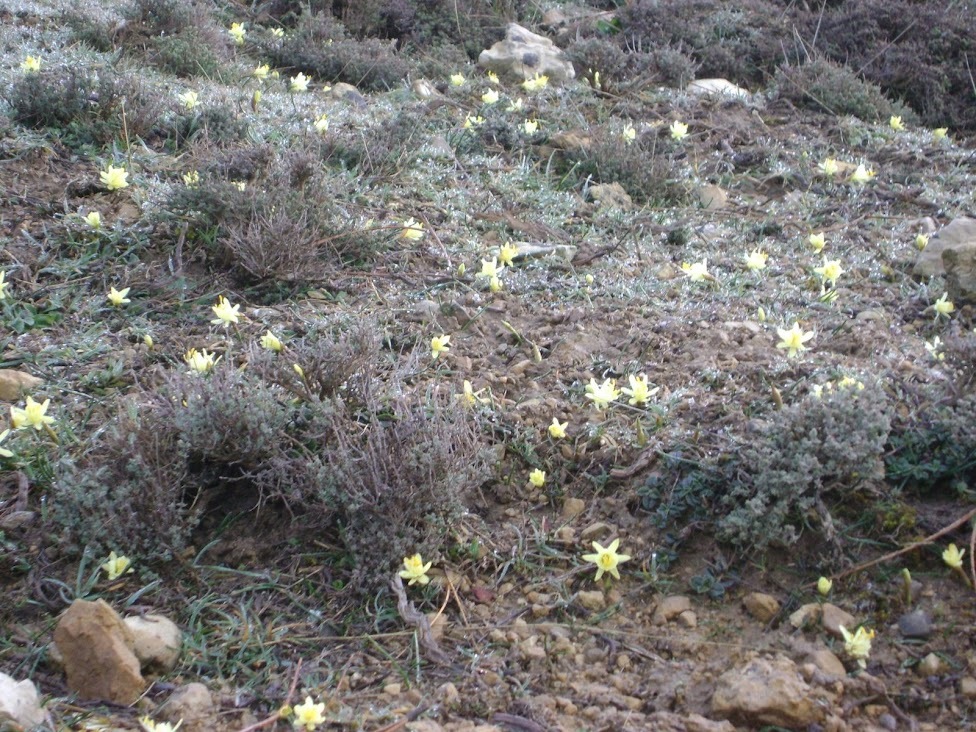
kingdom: Plantae
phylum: Tracheophyta
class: Liliopsida
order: Asparagales
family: Amaryllidaceae
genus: Narcissus
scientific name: Narcissus hedraeanthus
